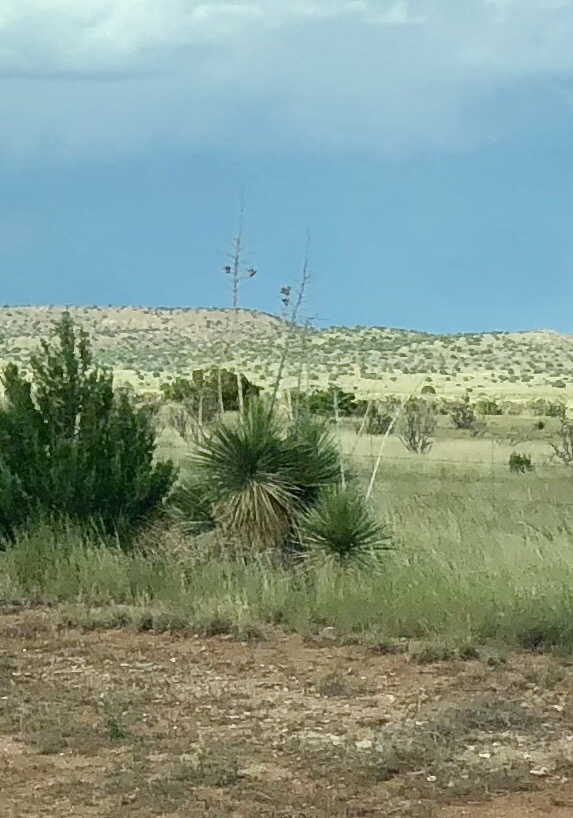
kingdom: Plantae
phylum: Tracheophyta
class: Liliopsida
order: Asparagales
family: Asparagaceae
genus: Yucca
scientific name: Yucca elata
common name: Palmella
